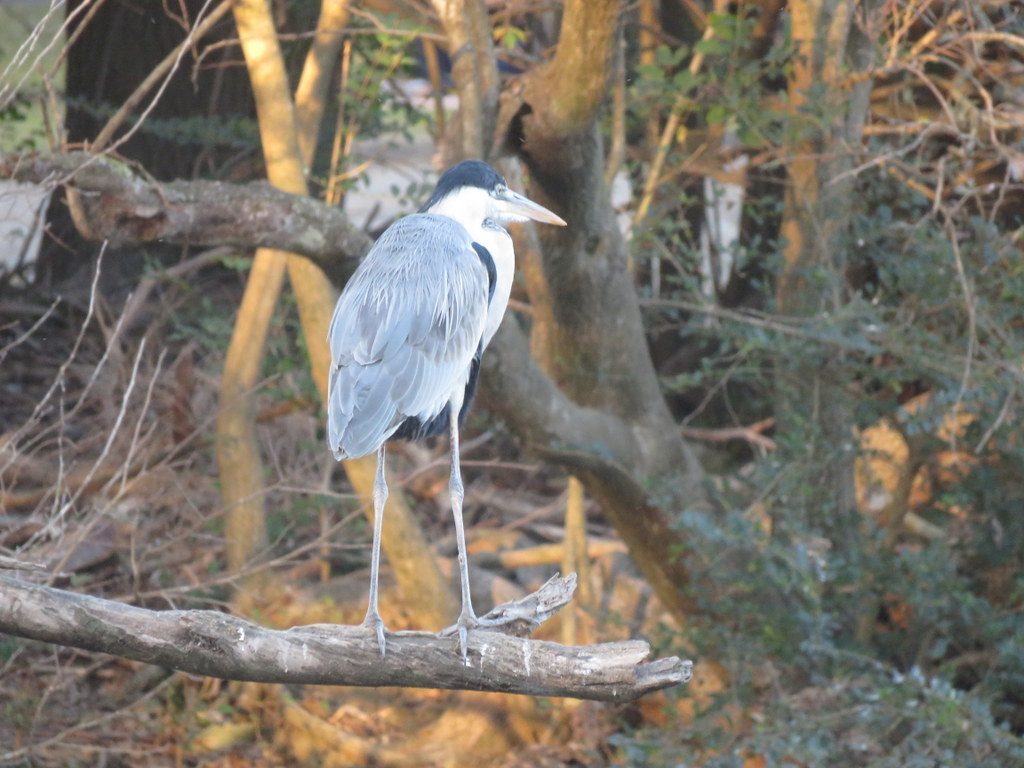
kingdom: Animalia
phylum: Chordata
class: Aves
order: Pelecaniformes
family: Ardeidae
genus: Ardea
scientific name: Ardea cocoi
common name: Cocoi heron
